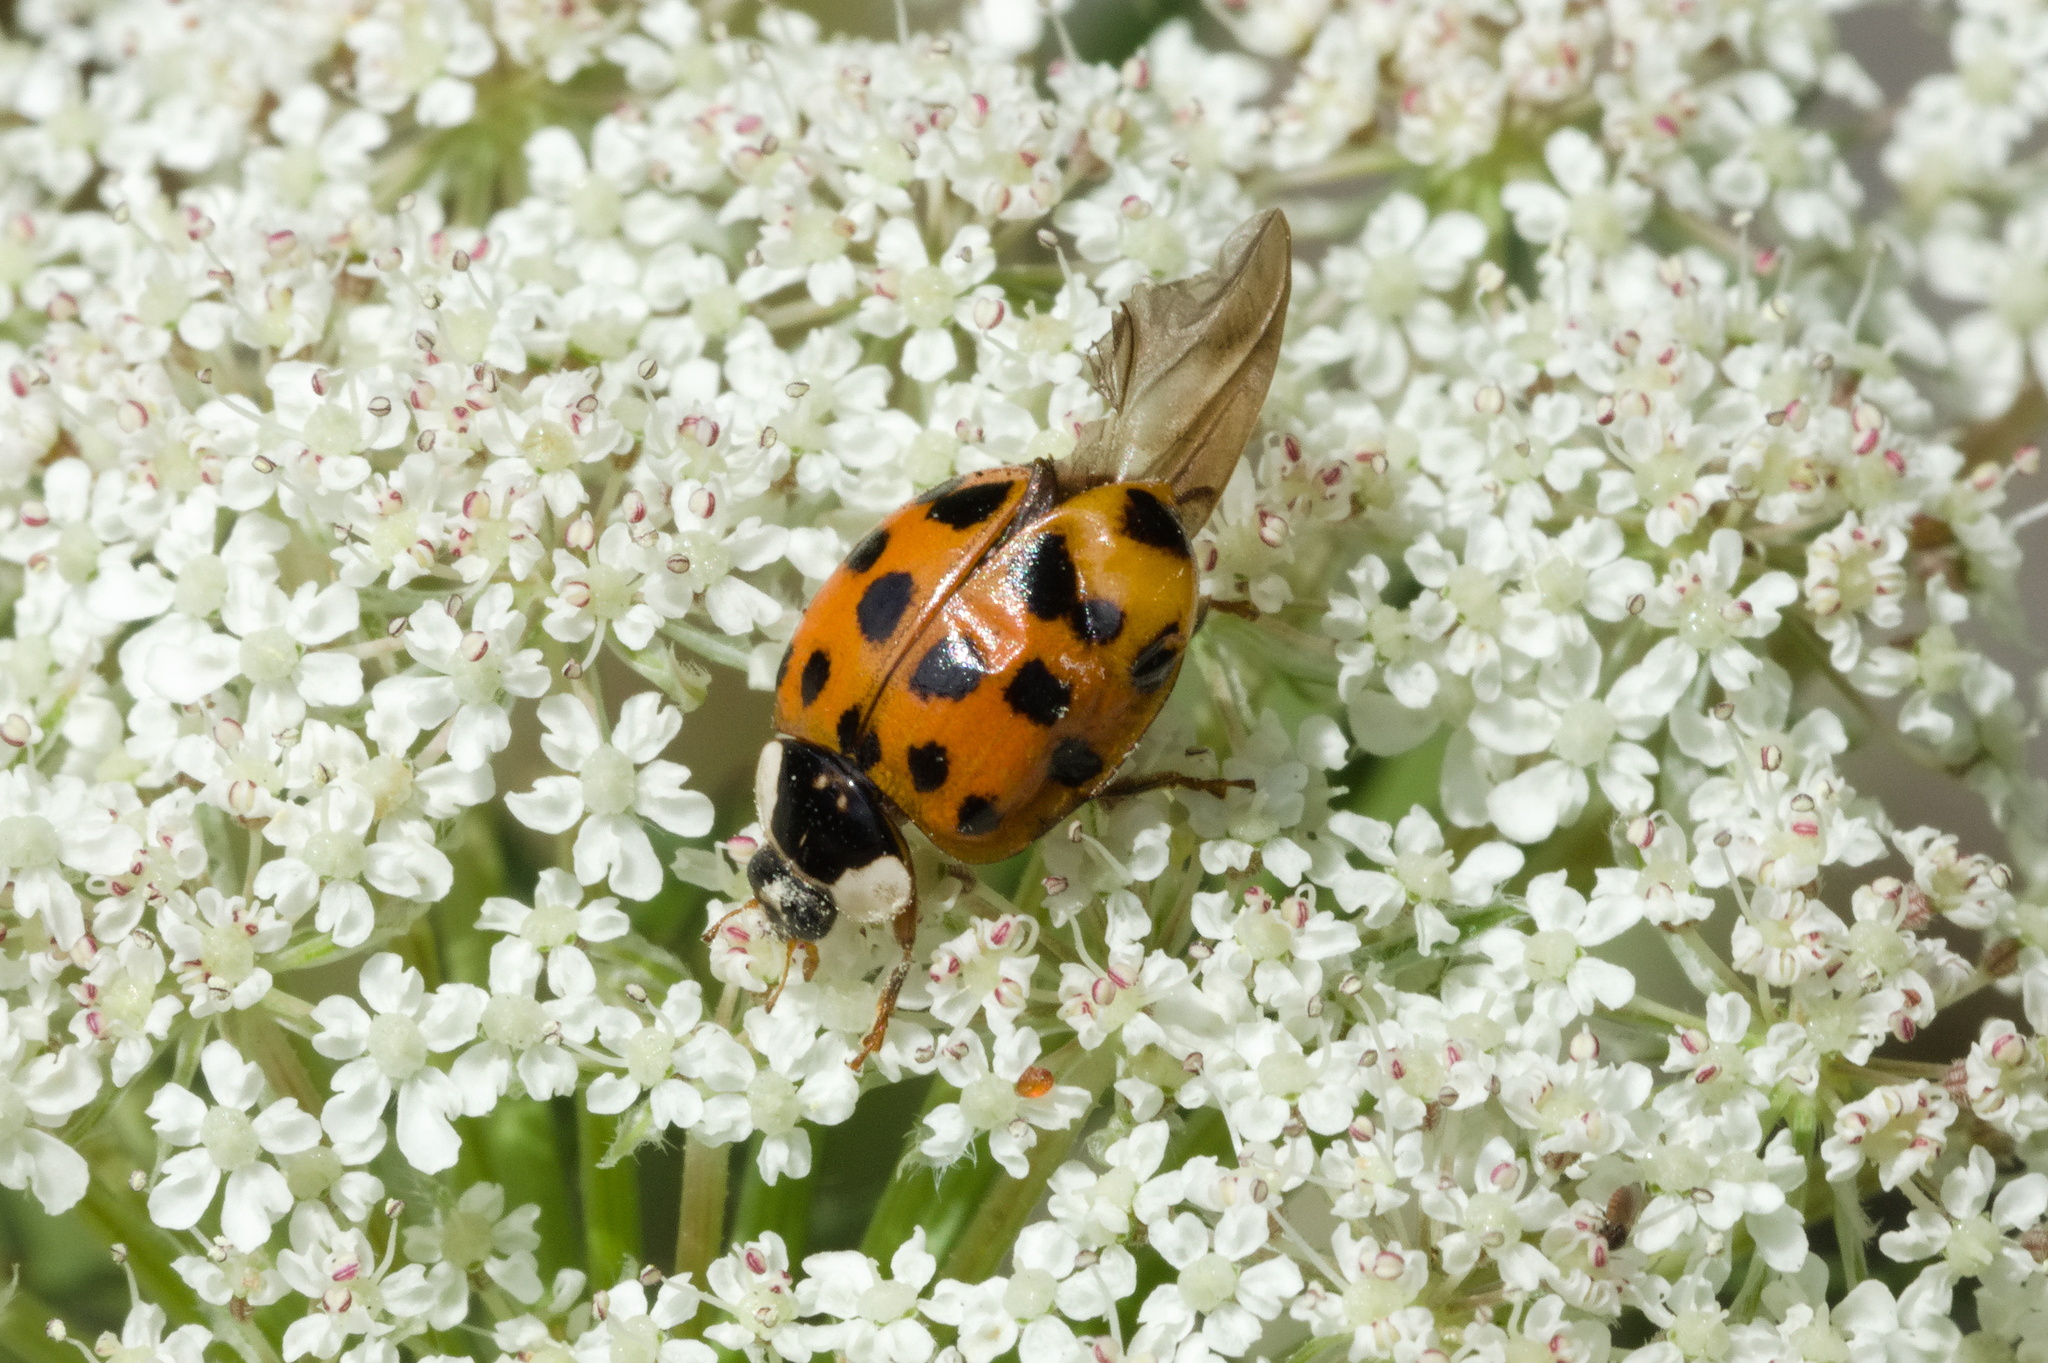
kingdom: Animalia
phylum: Arthropoda
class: Insecta
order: Coleoptera
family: Coccinellidae
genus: Harmonia
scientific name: Harmonia axyridis
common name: Harlequin ladybird
